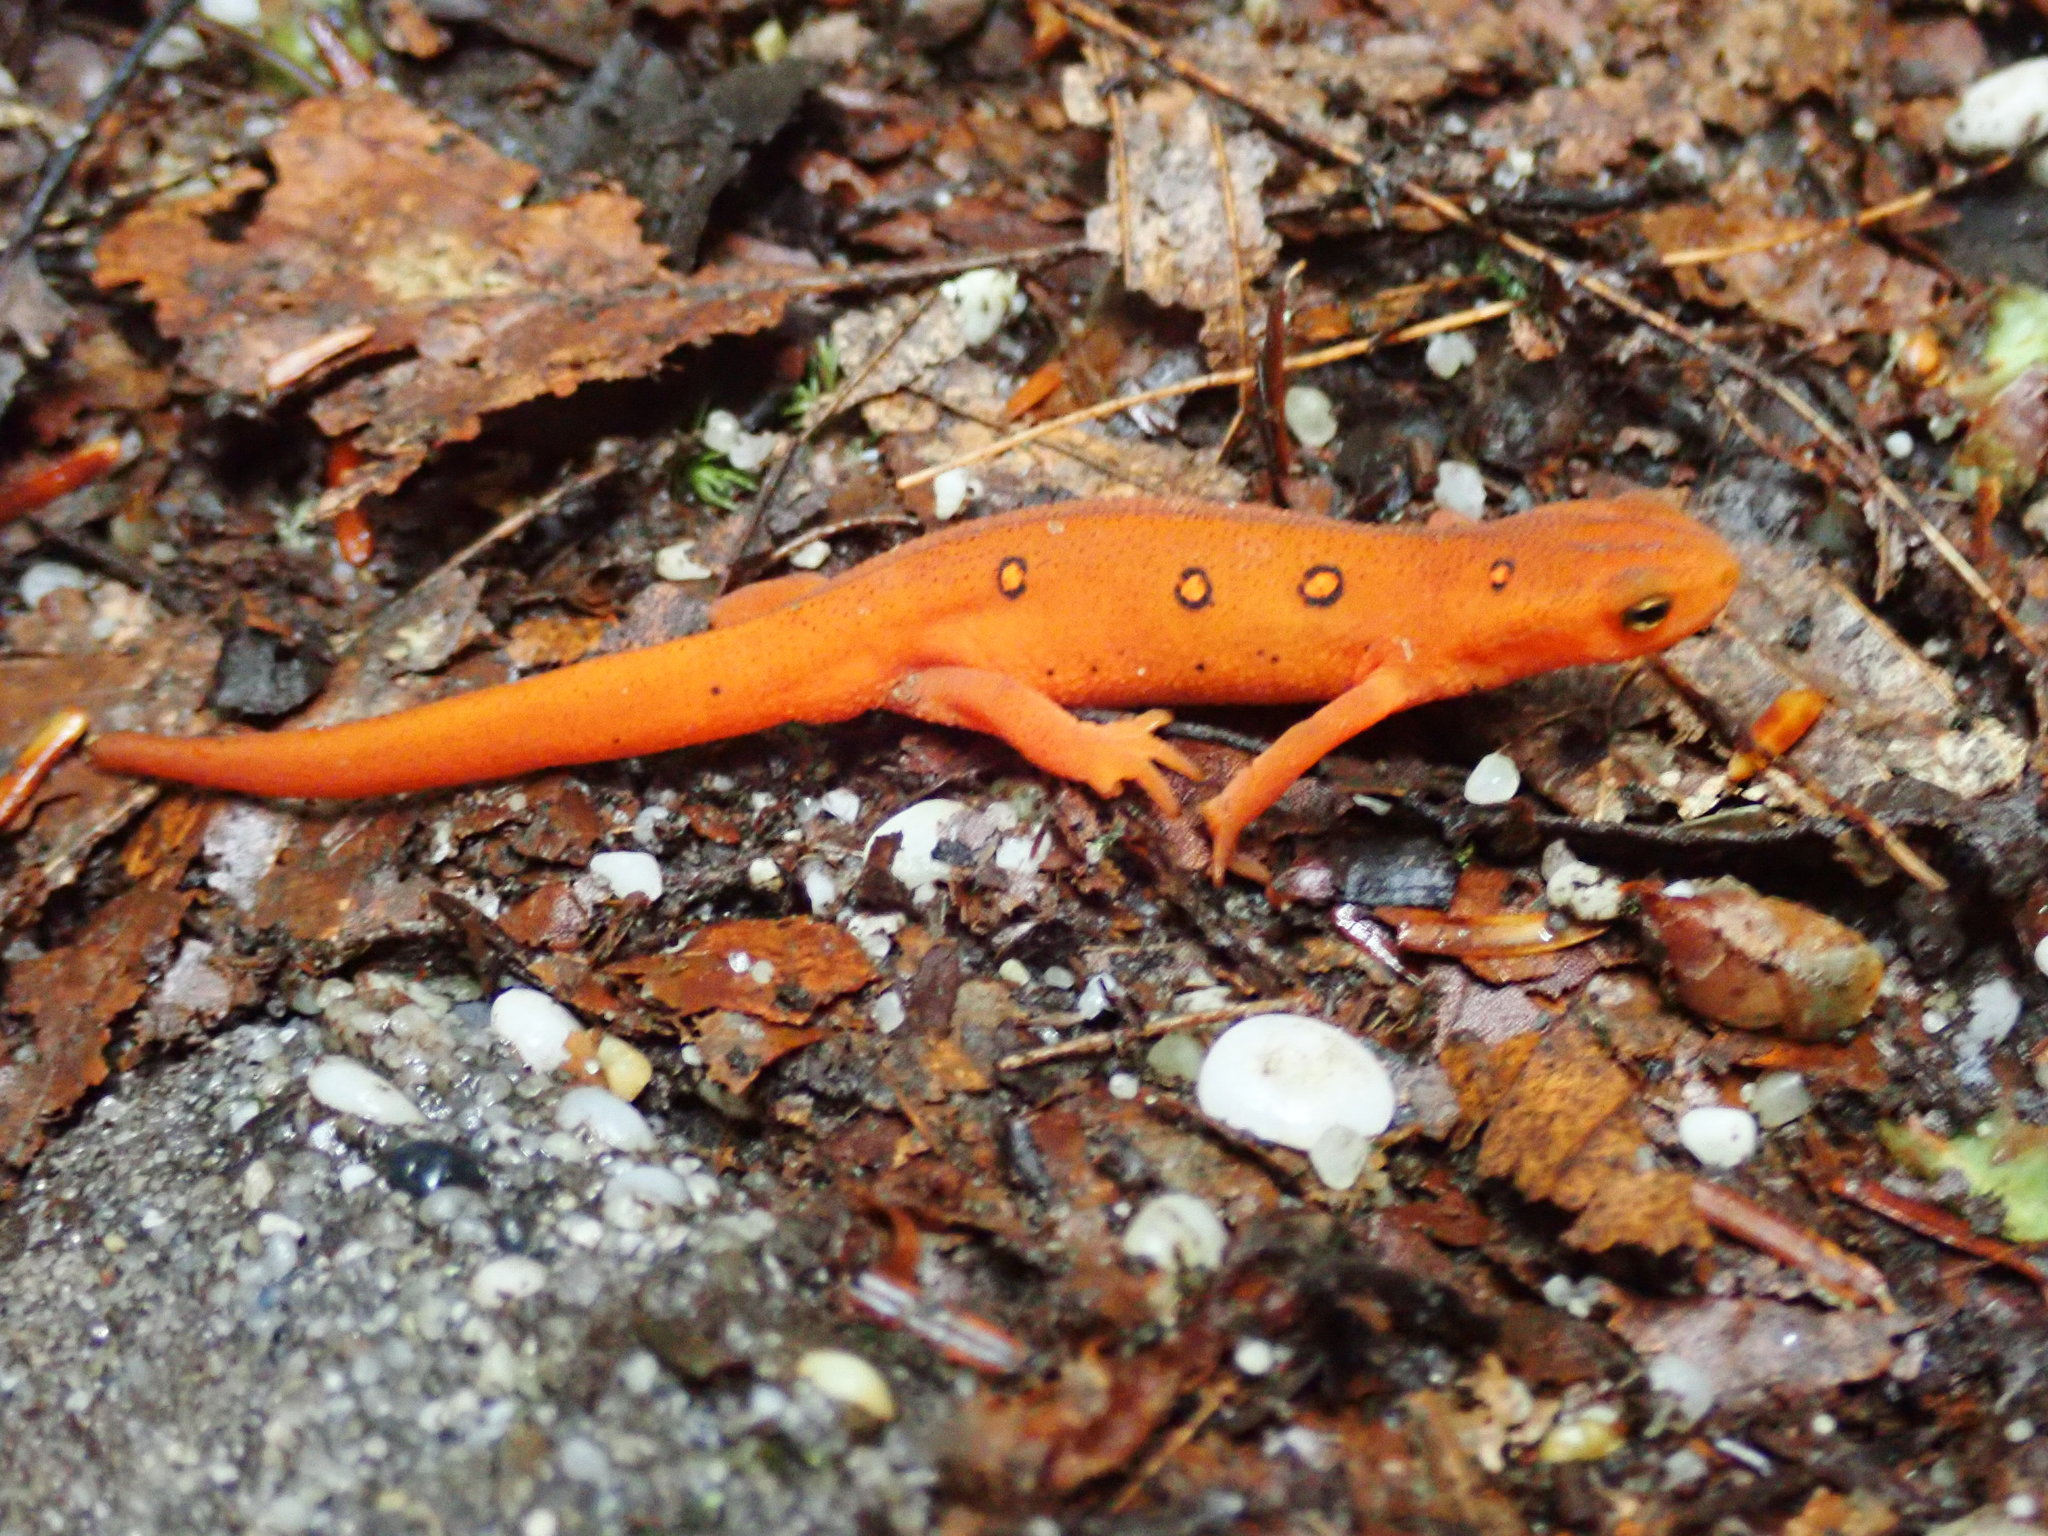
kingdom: Animalia
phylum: Chordata
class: Amphibia
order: Caudata
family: Salamandridae
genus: Notophthalmus
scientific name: Notophthalmus viridescens
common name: Eastern newt
